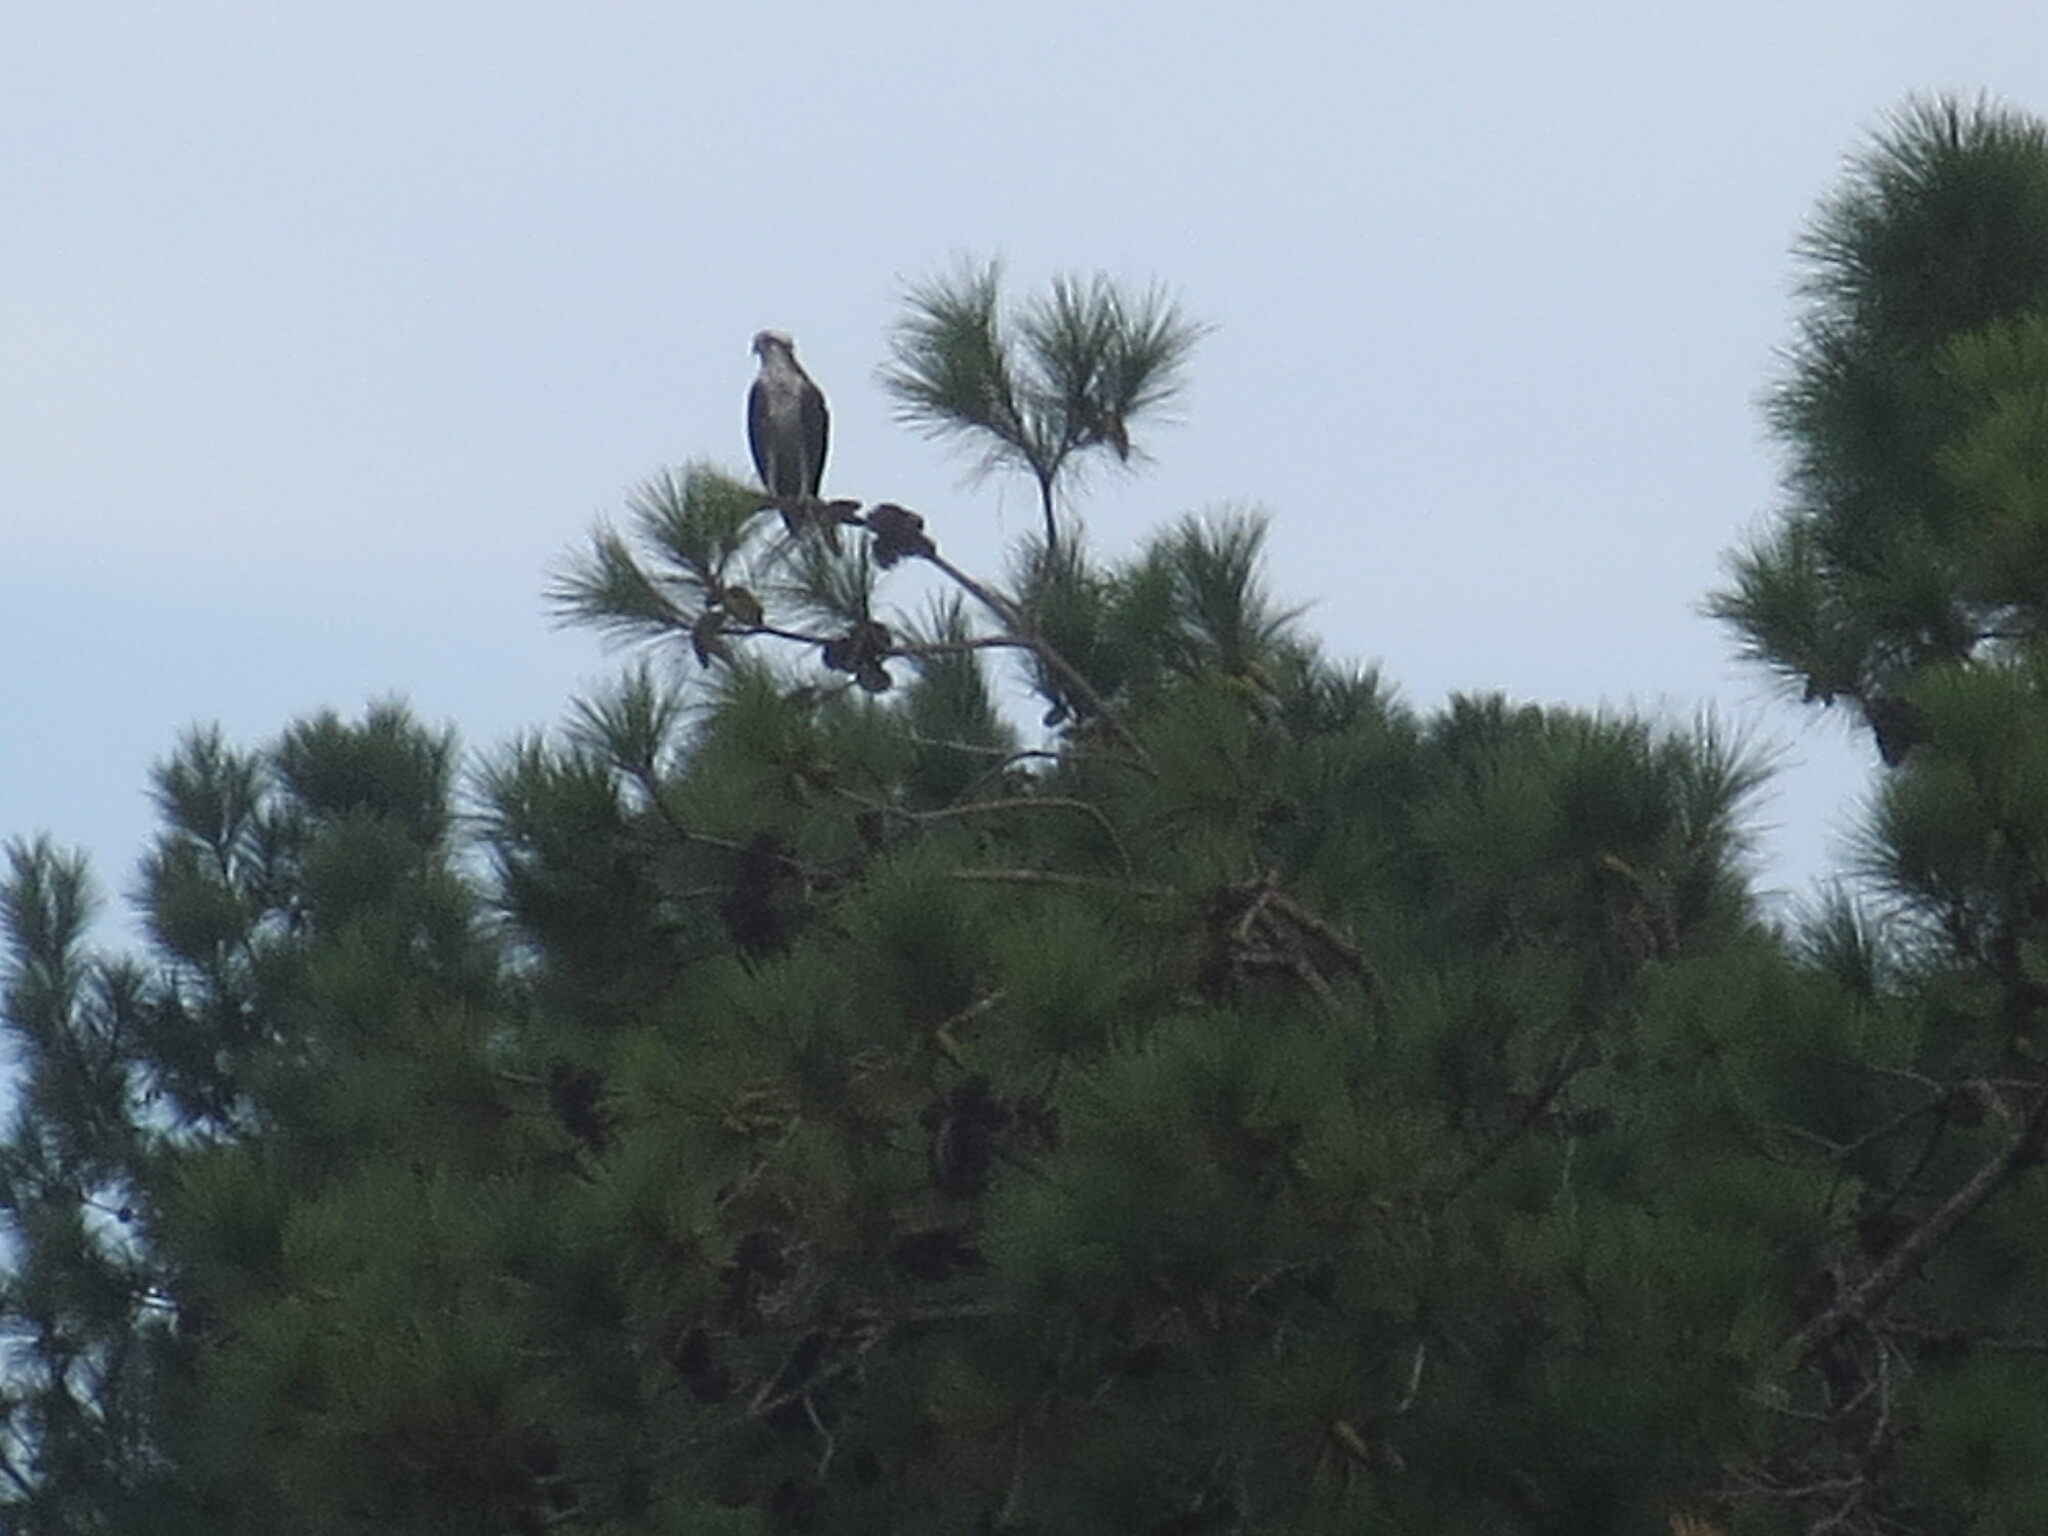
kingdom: Animalia
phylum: Chordata
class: Aves
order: Accipitriformes
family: Pandionidae
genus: Pandion
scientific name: Pandion haliaetus
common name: Osprey
